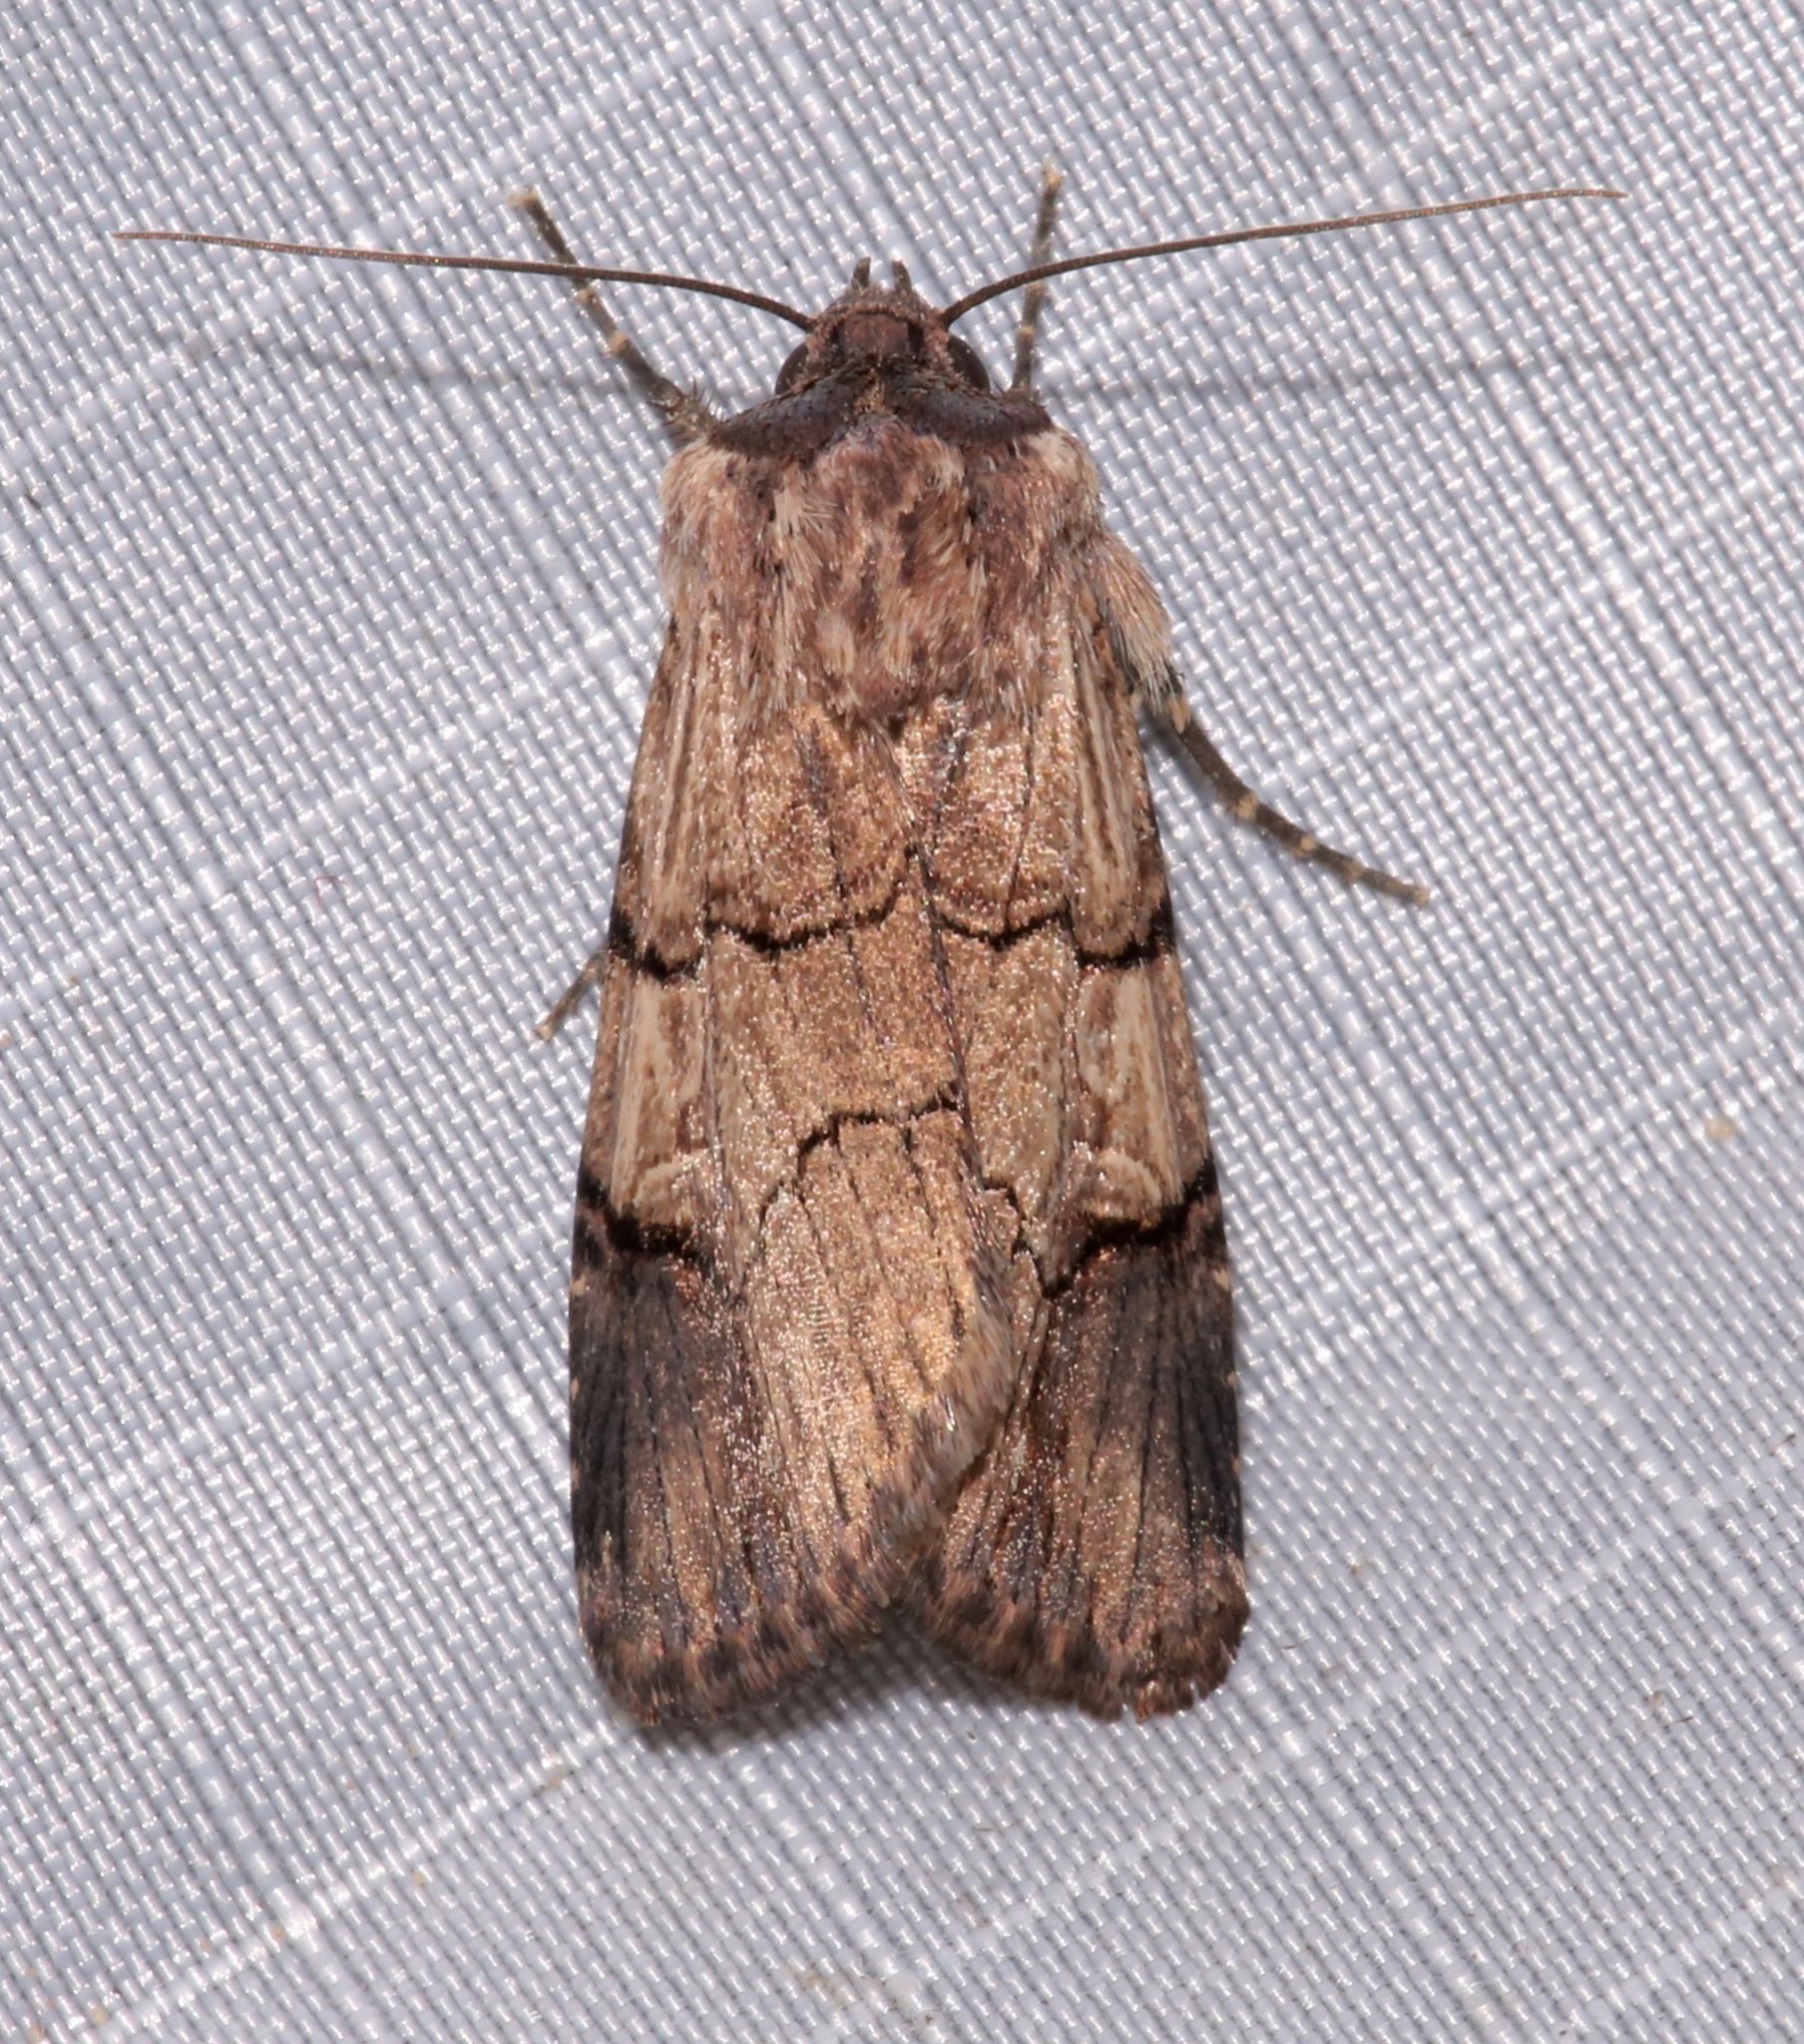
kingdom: Animalia
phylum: Arthropoda
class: Insecta
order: Lepidoptera
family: Noctuidae
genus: Dichagyris
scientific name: Dichagyris grotei
